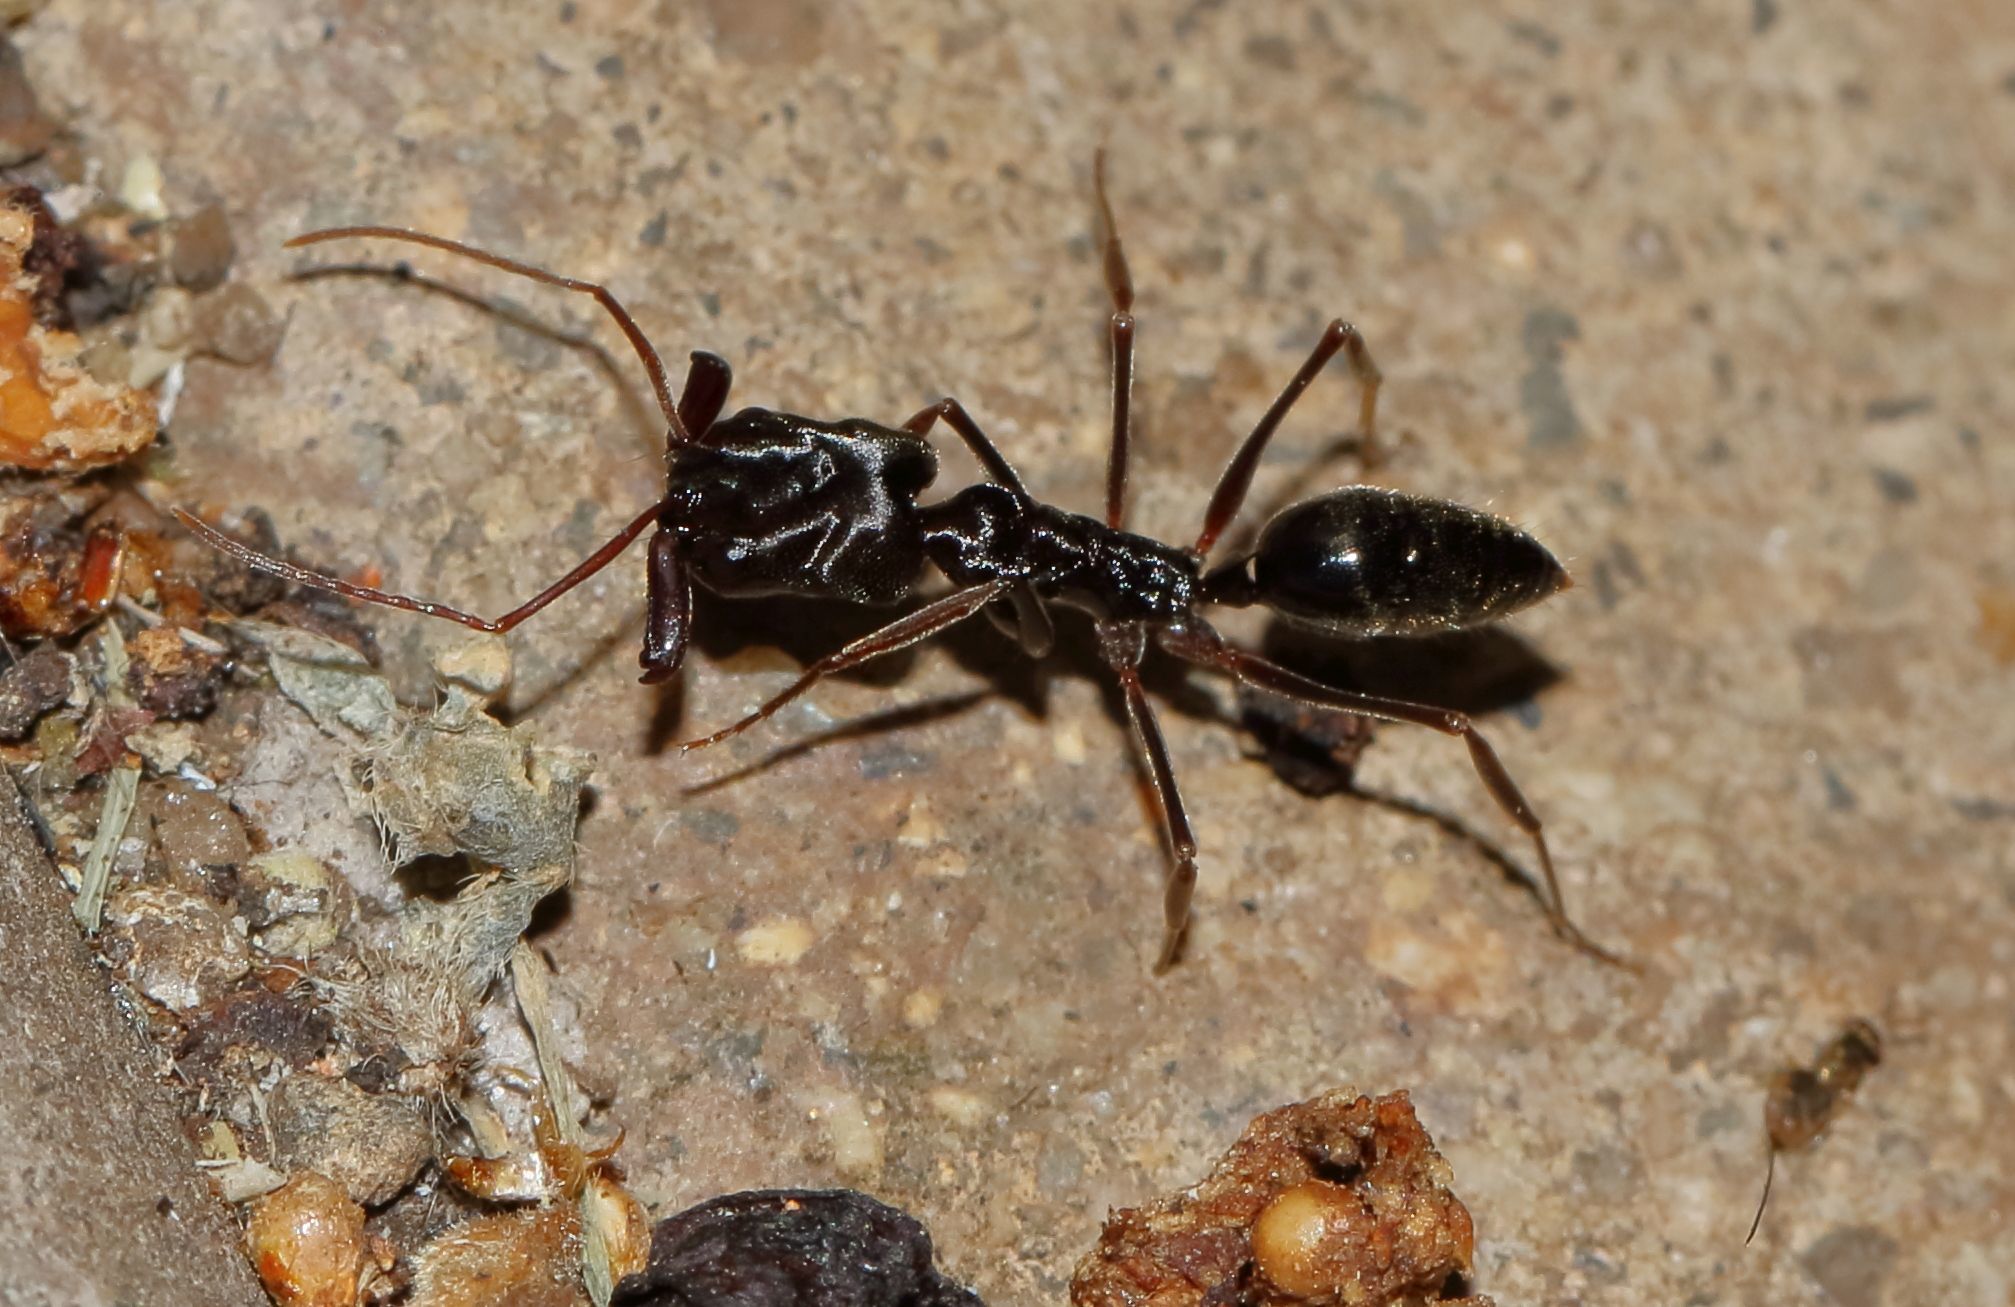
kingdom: Animalia
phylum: Arthropoda
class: Insecta
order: Hymenoptera
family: Formicidae
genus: Odontomachus
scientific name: Odontomachus troglodytes
